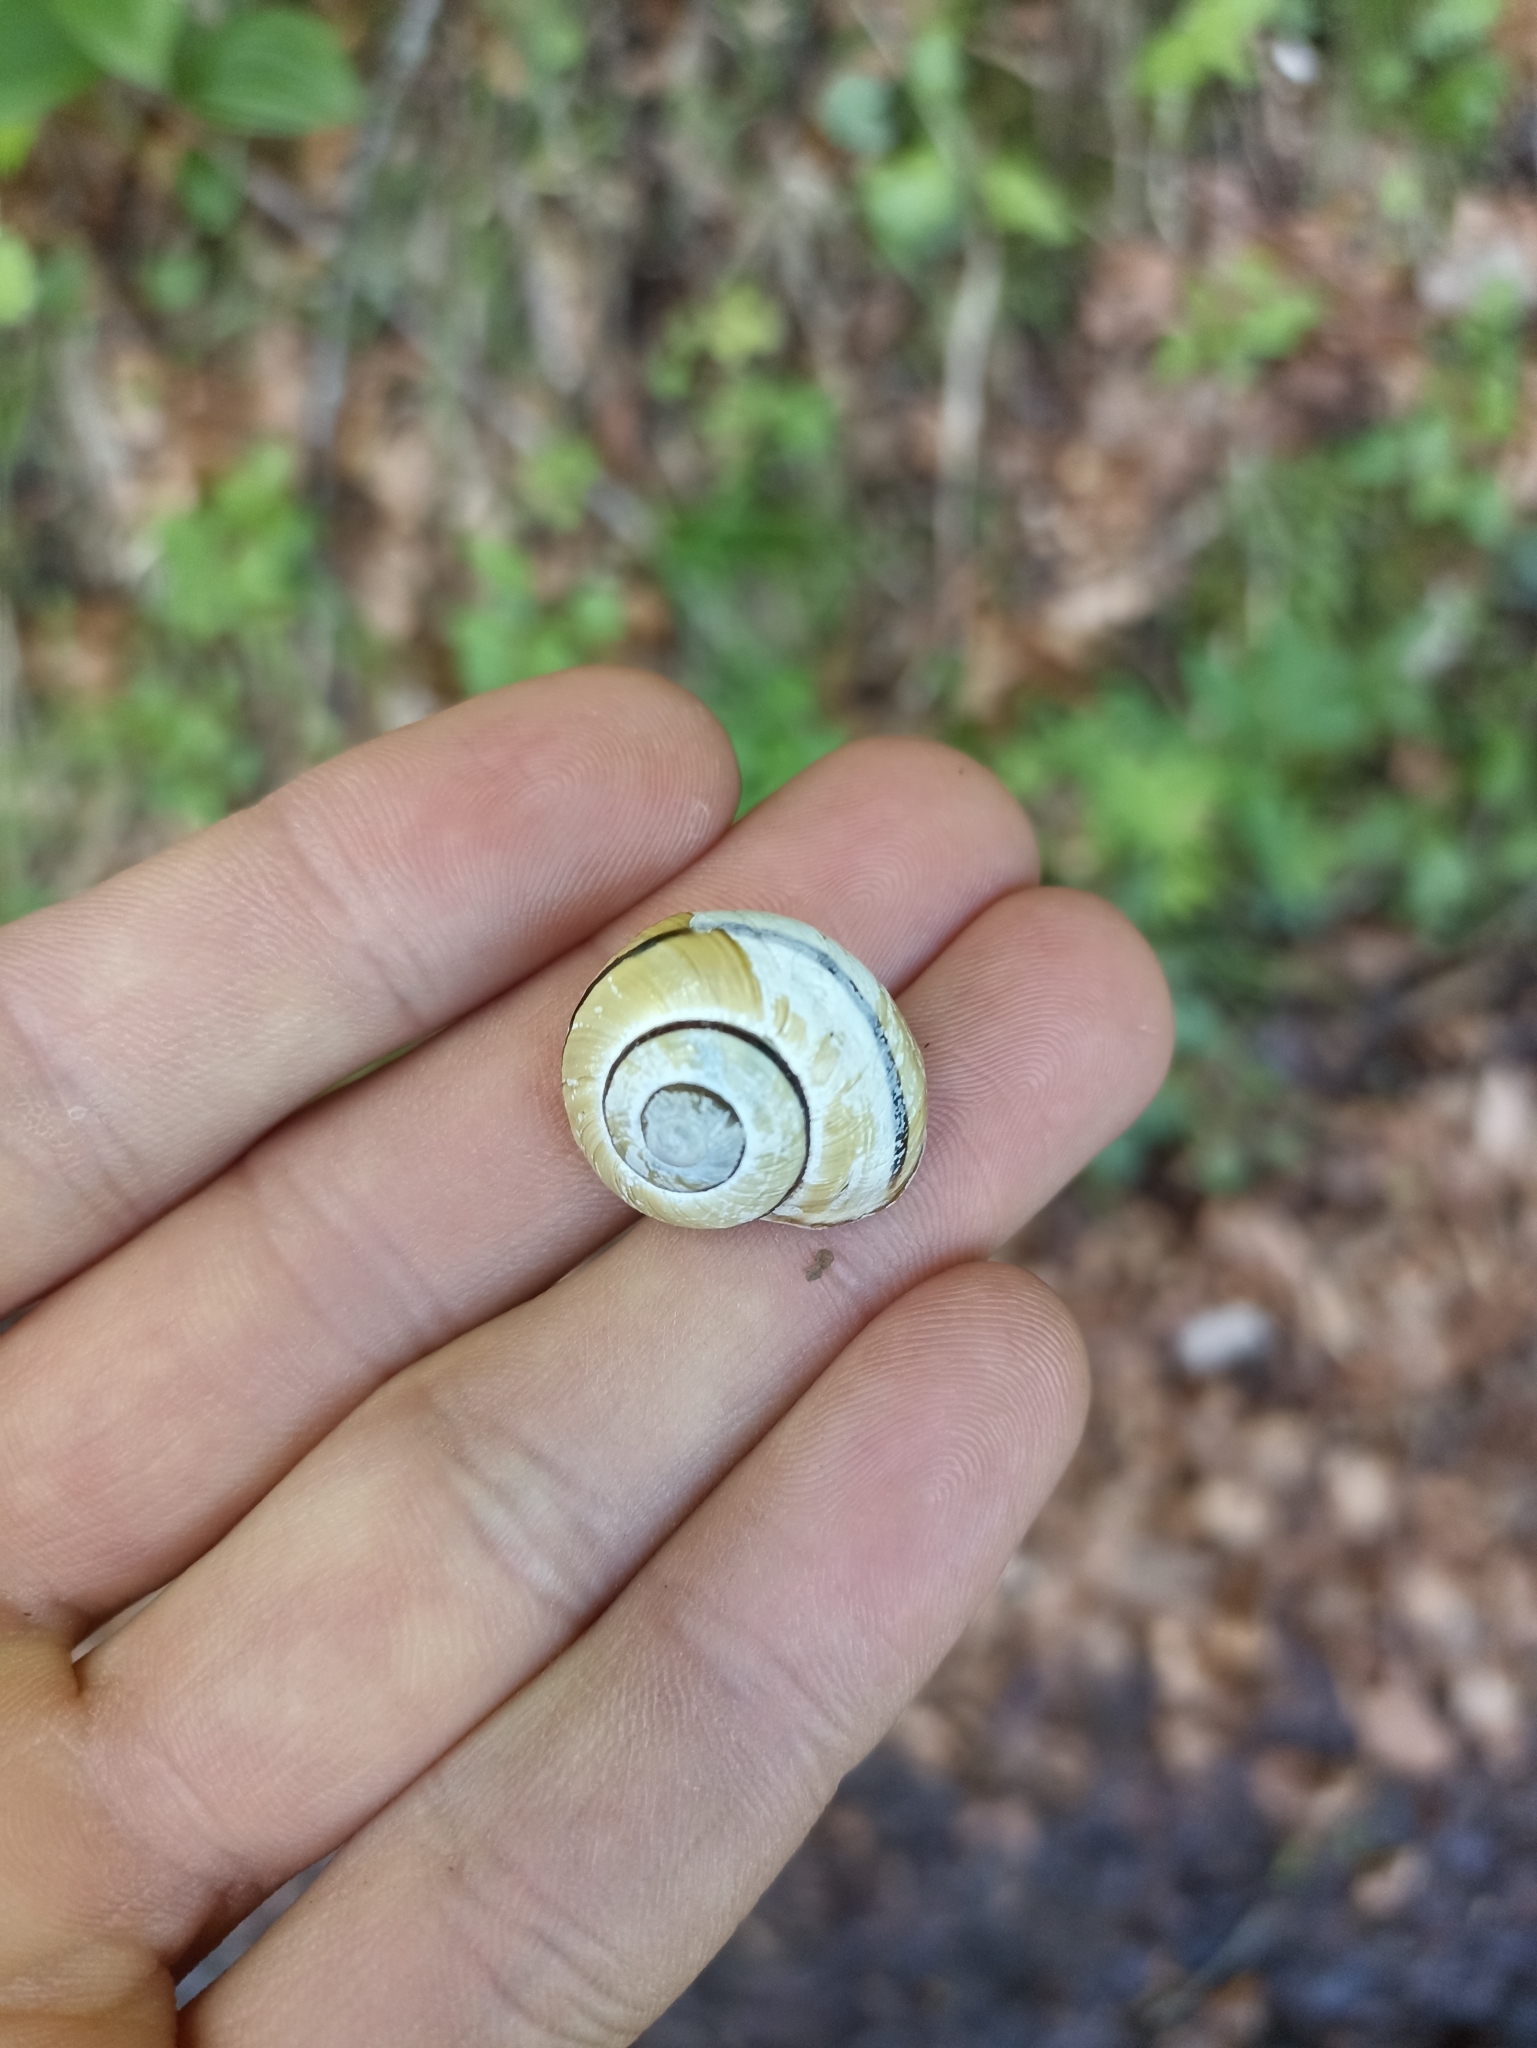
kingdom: Animalia
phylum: Mollusca
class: Gastropoda
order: Stylommatophora
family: Helicidae
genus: Cepaea
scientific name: Cepaea nemoralis
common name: Grovesnail
